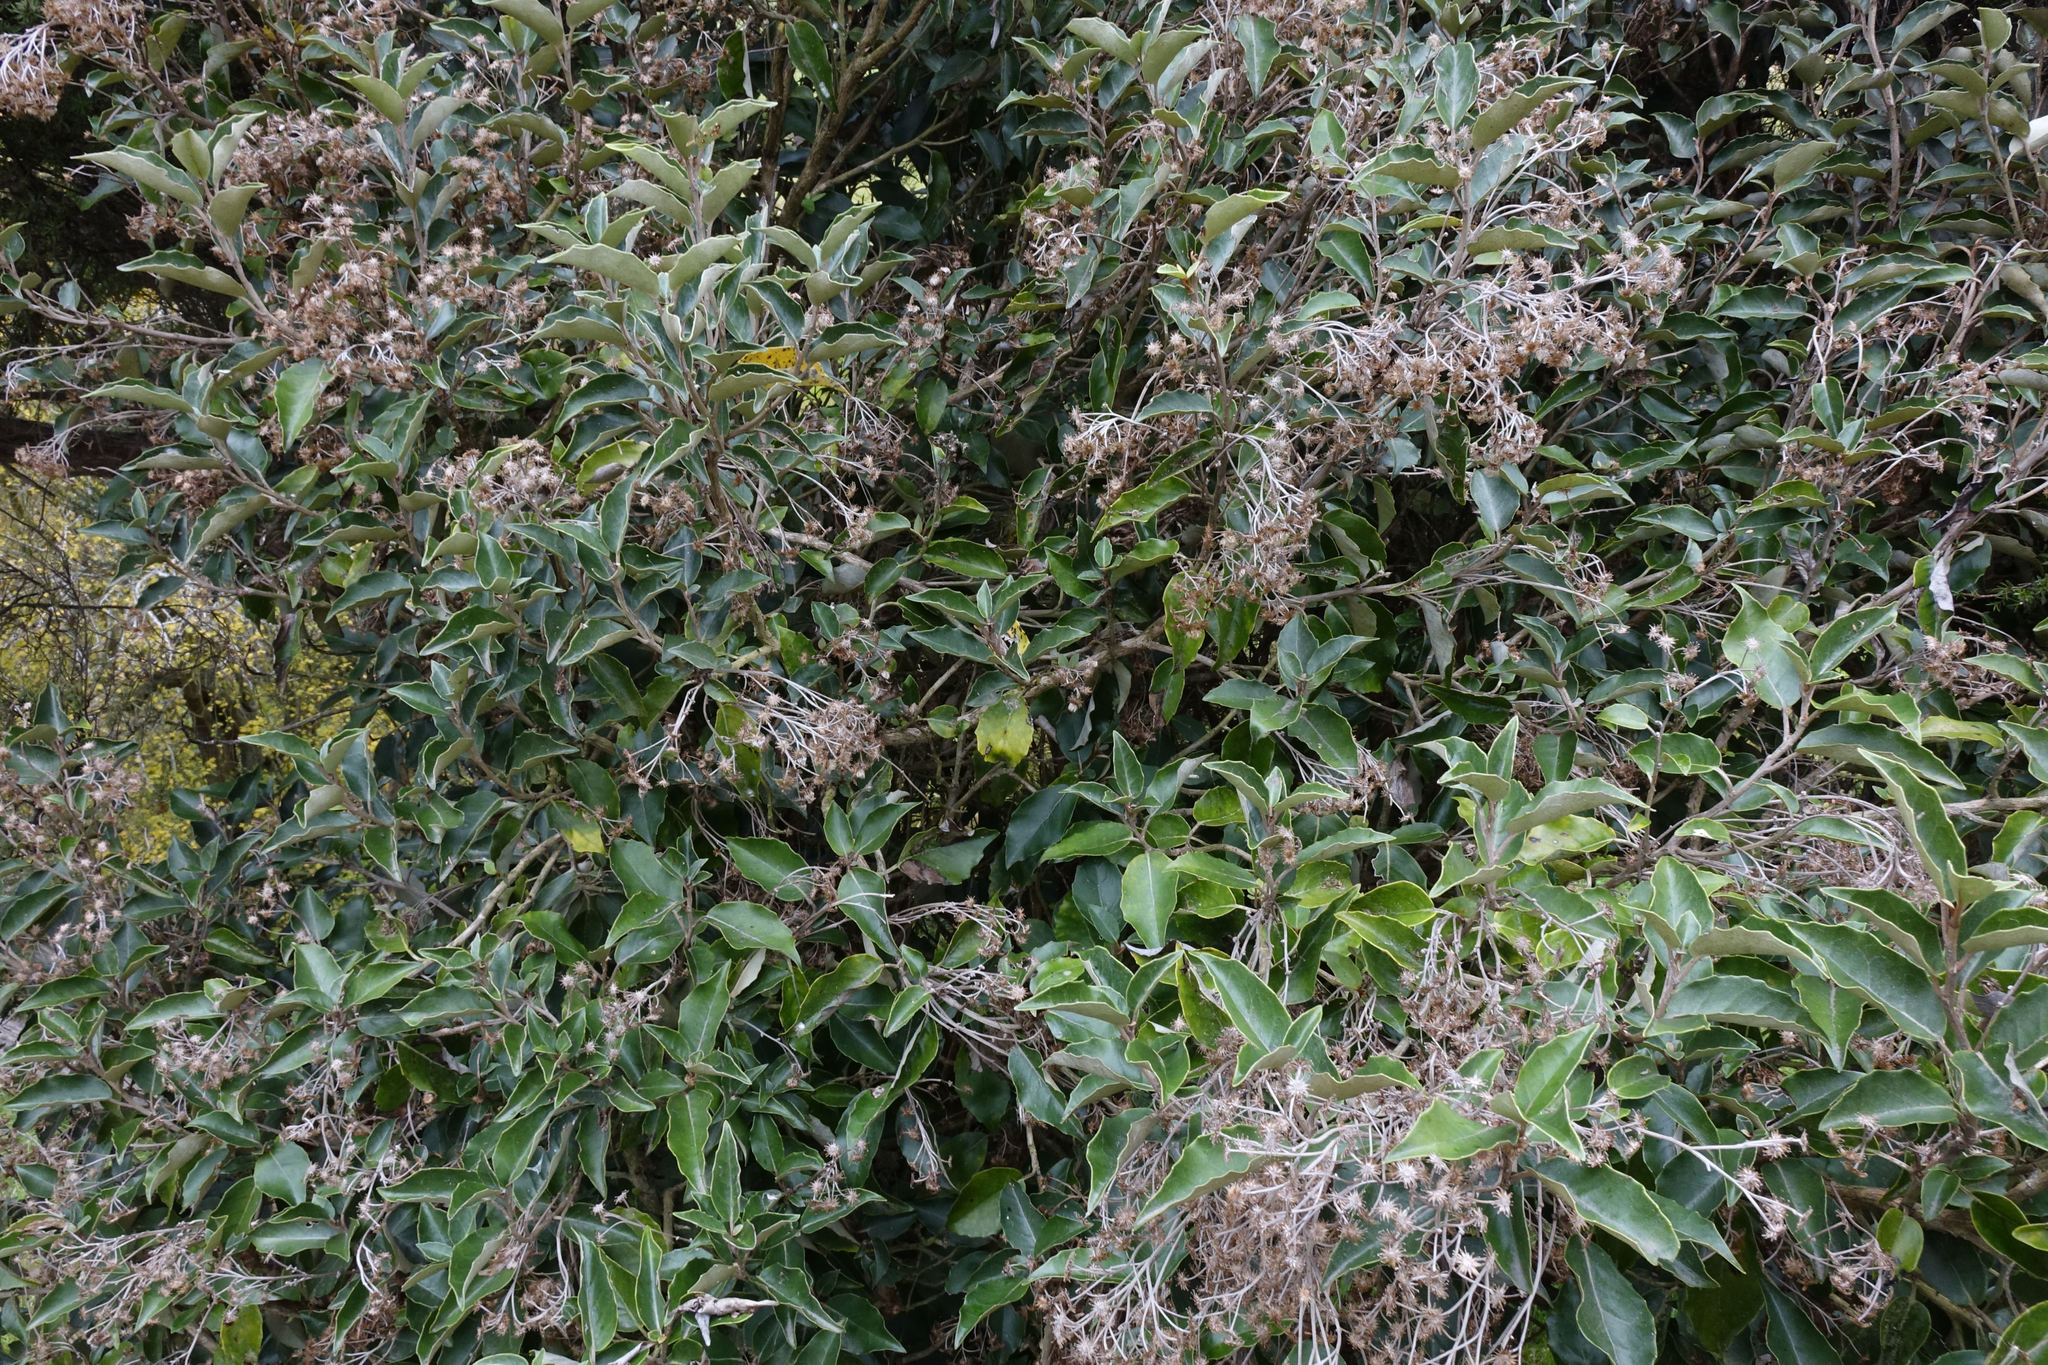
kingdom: Plantae
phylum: Tracheophyta
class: Magnoliopsida
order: Asterales
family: Asteraceae
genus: Olearia
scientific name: Olearia arborescens
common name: Glossy tree daisy
